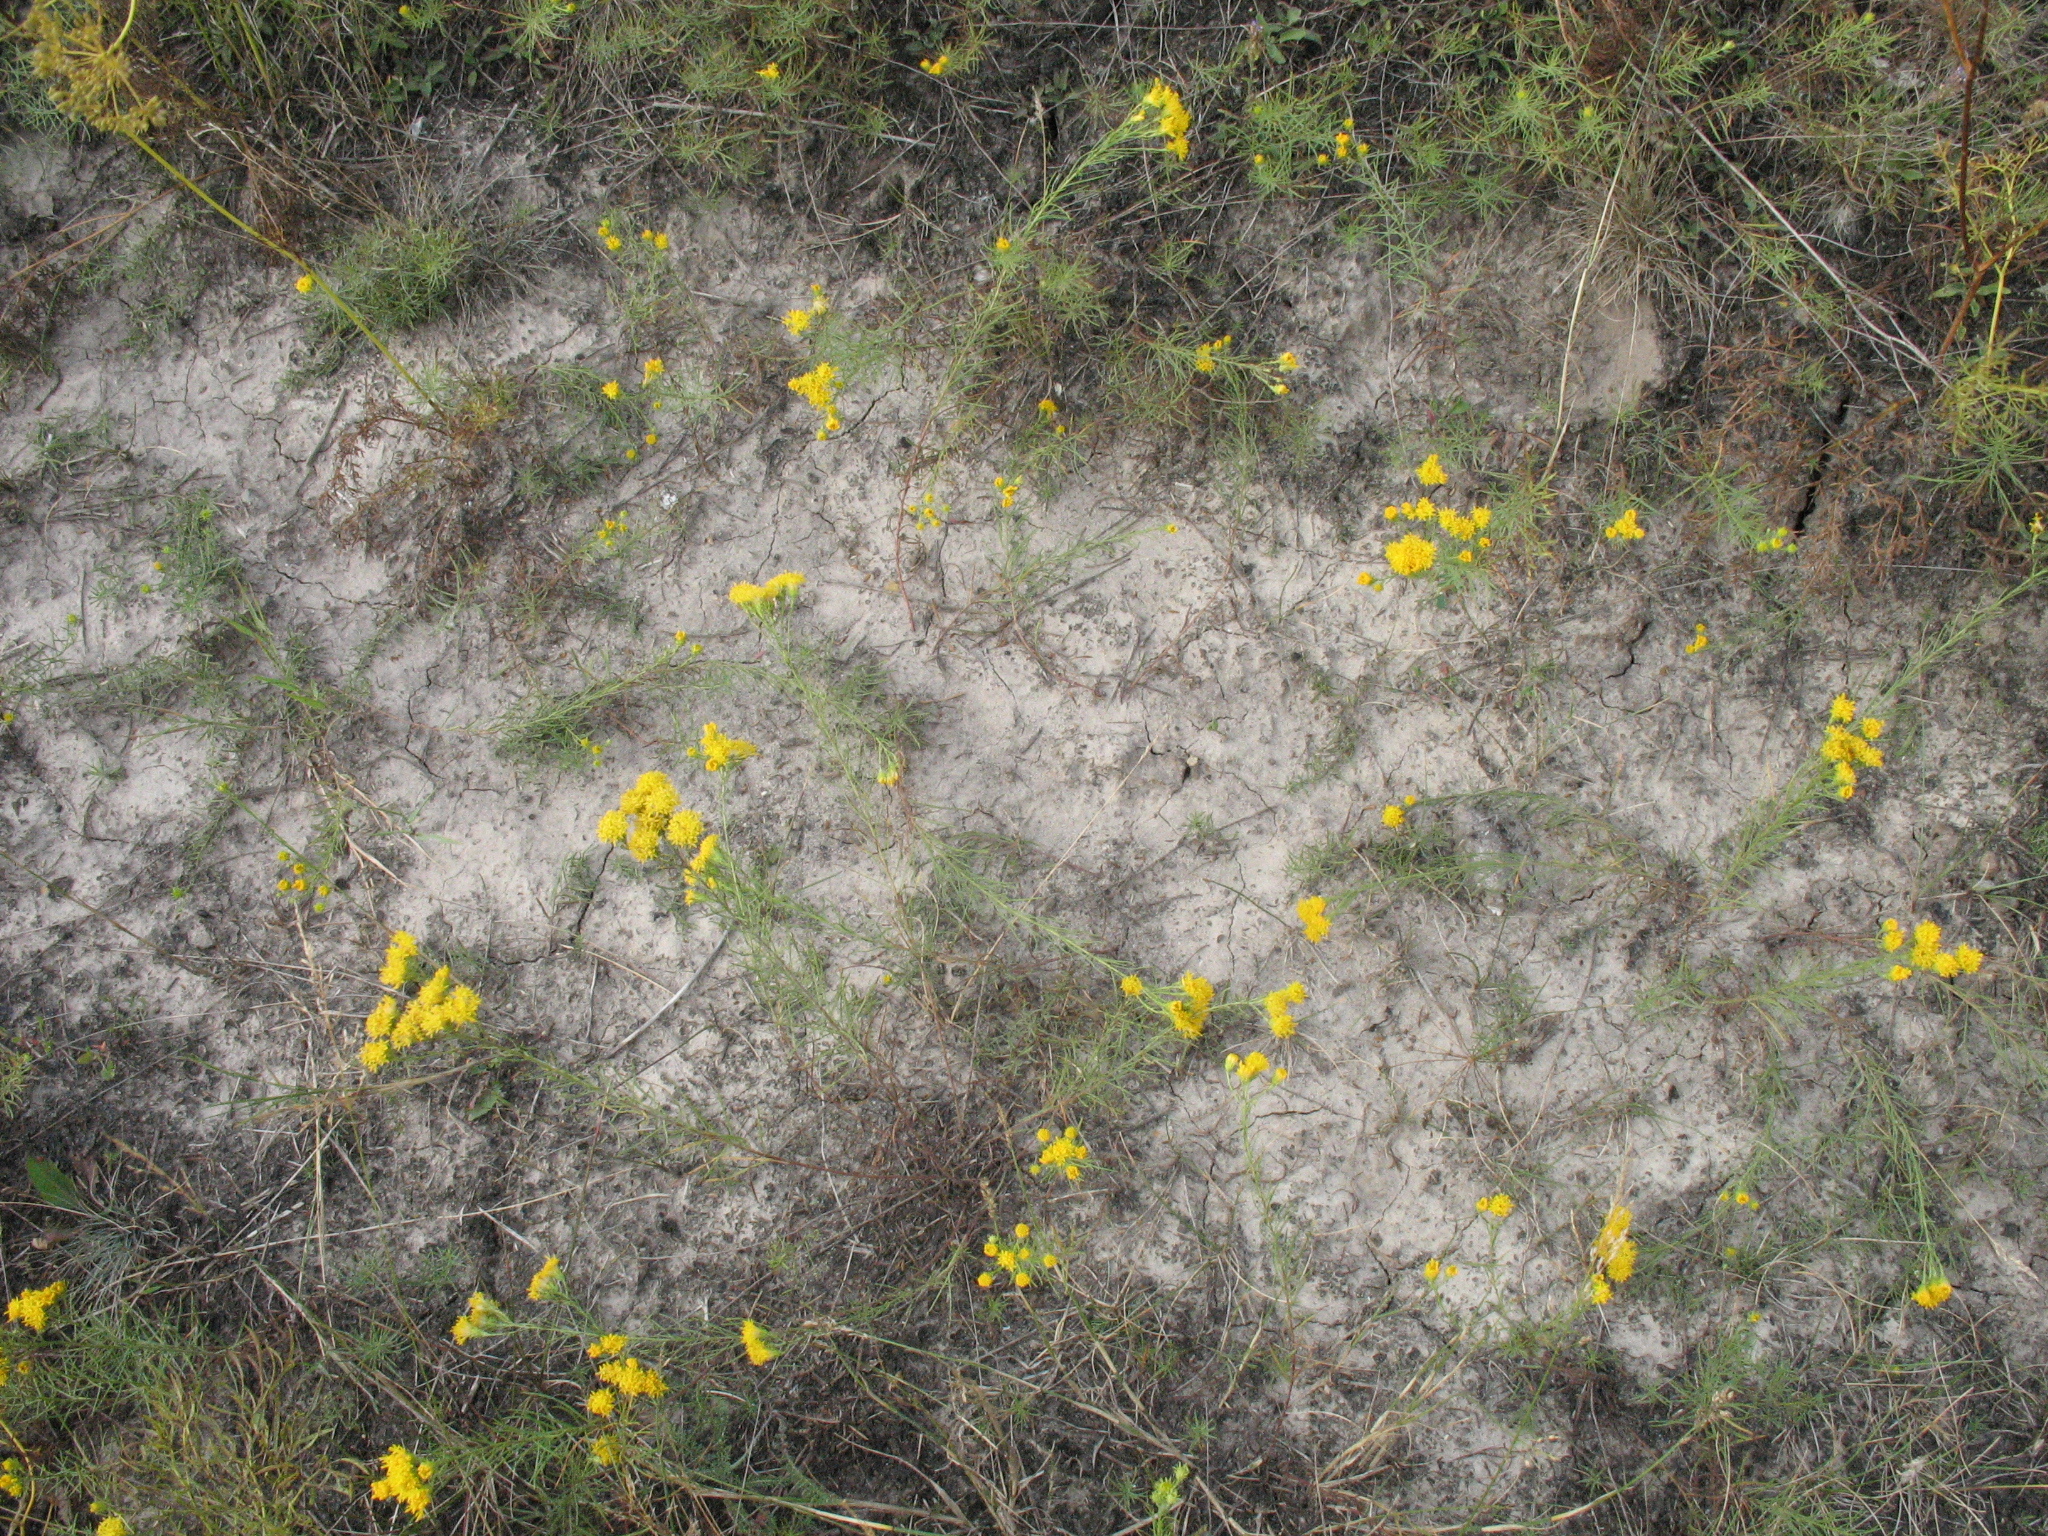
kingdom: Plantae
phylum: Tracheophyta
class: Magnoliopsida
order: Asterales
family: Asteraceae
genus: Galatella
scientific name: Galatella linosyris
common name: Goldilocks aster
